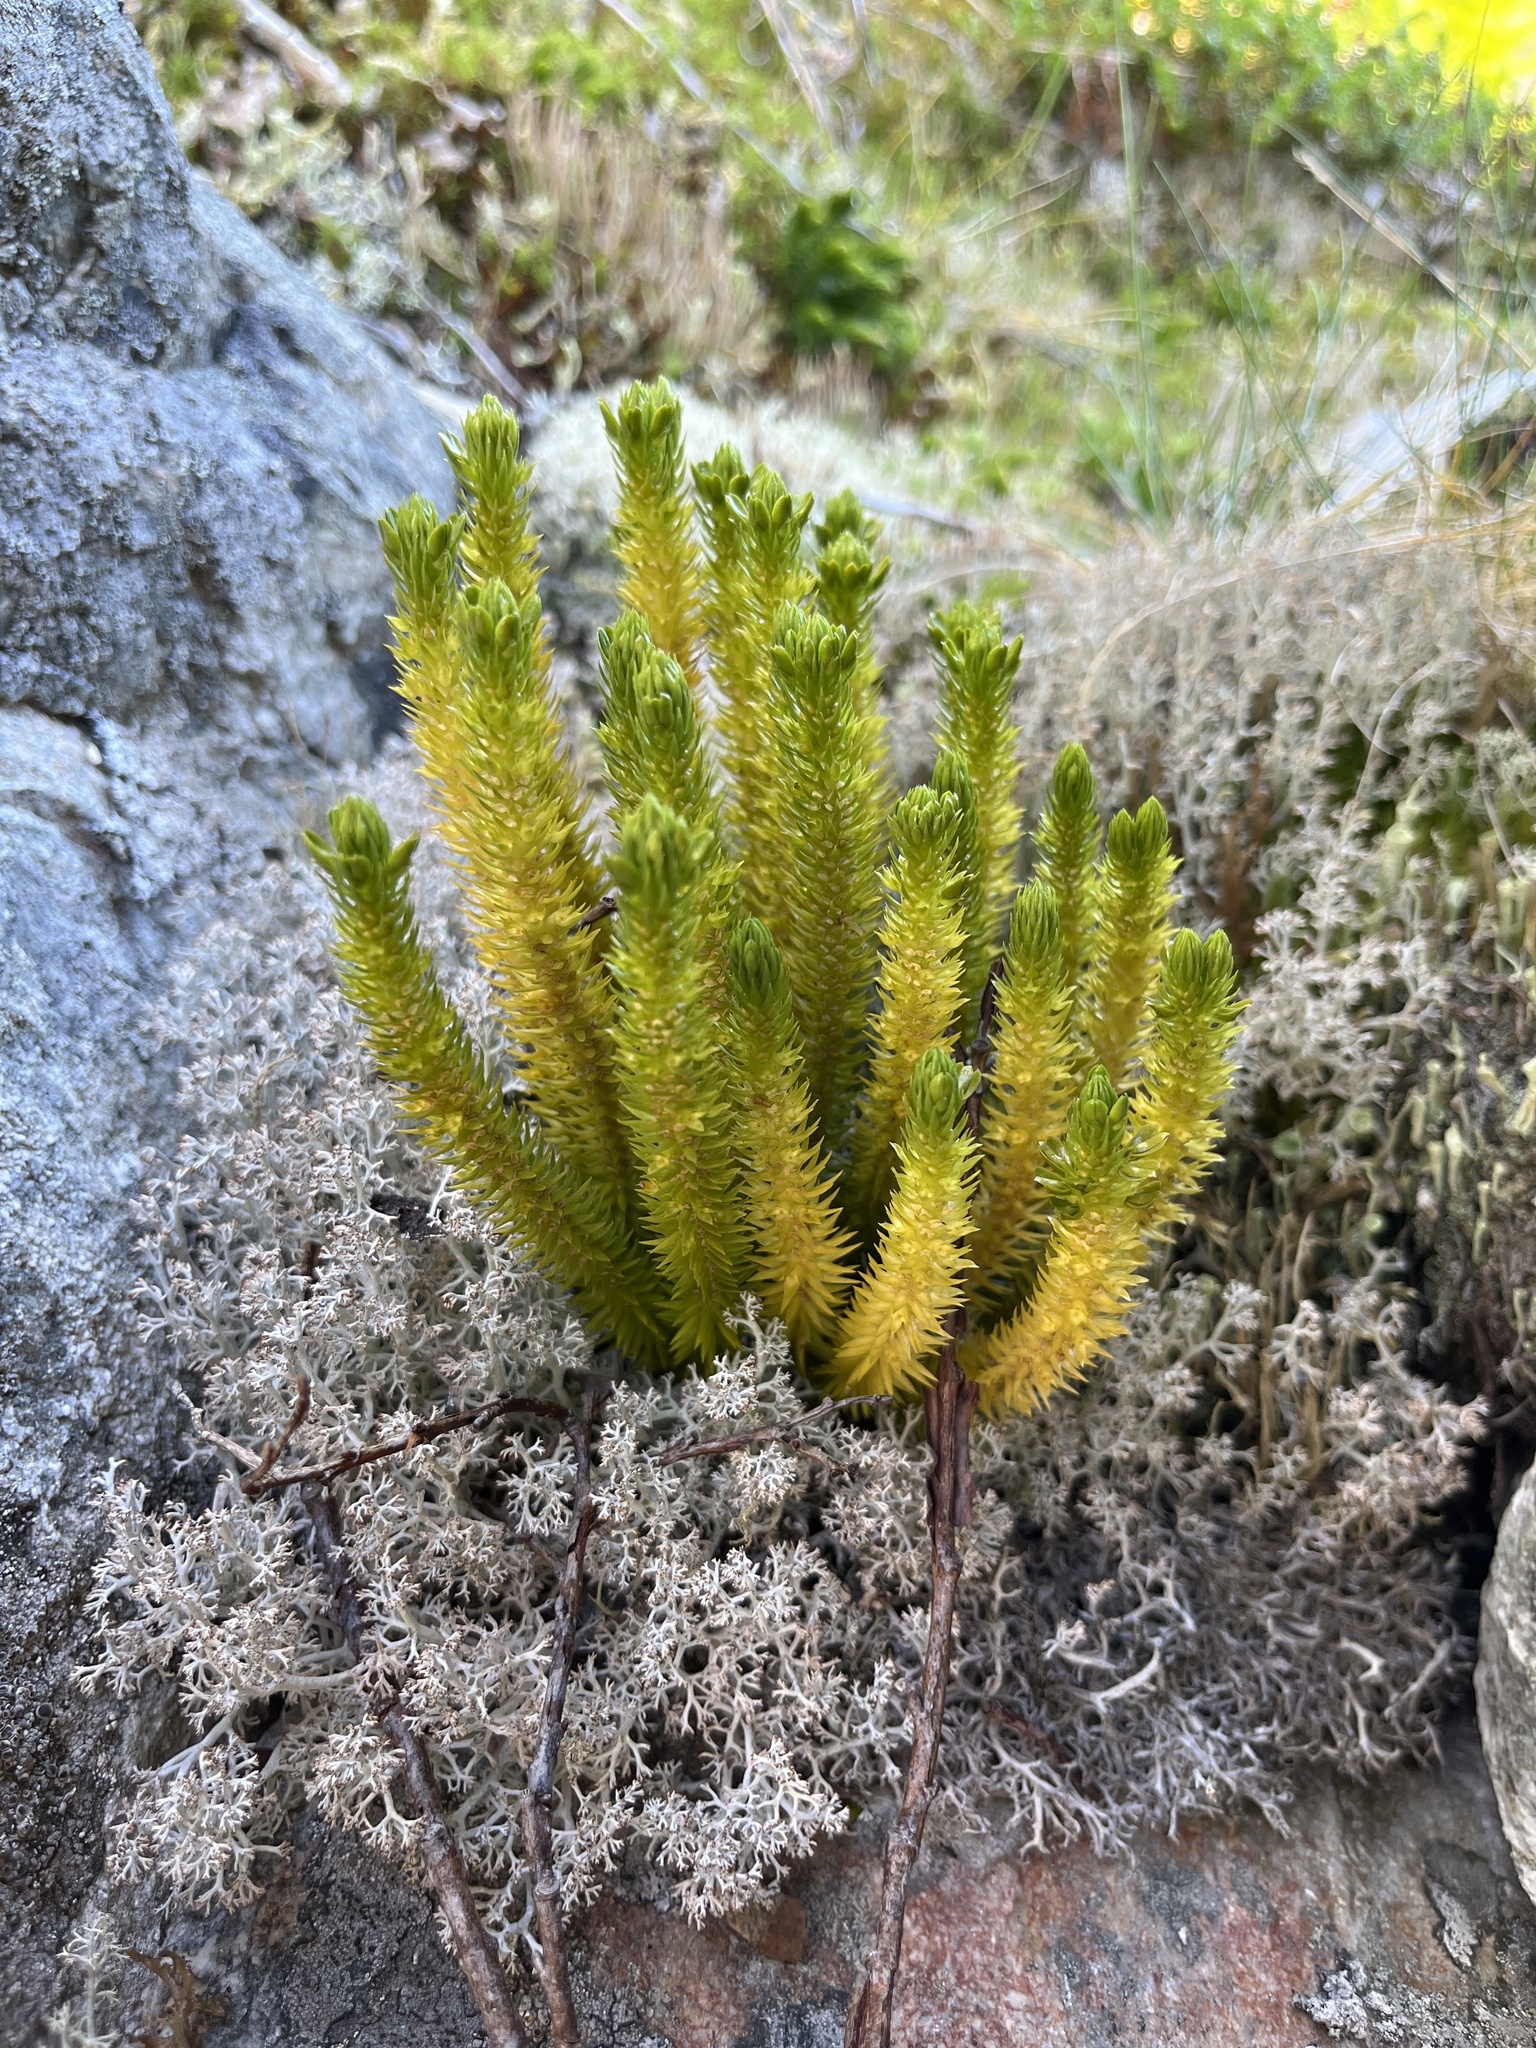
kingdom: Plantae
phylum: Tracheophyta
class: Lycopodiopsida
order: Lycopodiales
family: Lycopodiaceae
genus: Huperzia
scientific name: Huperzia selago
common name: Northern firmoss
